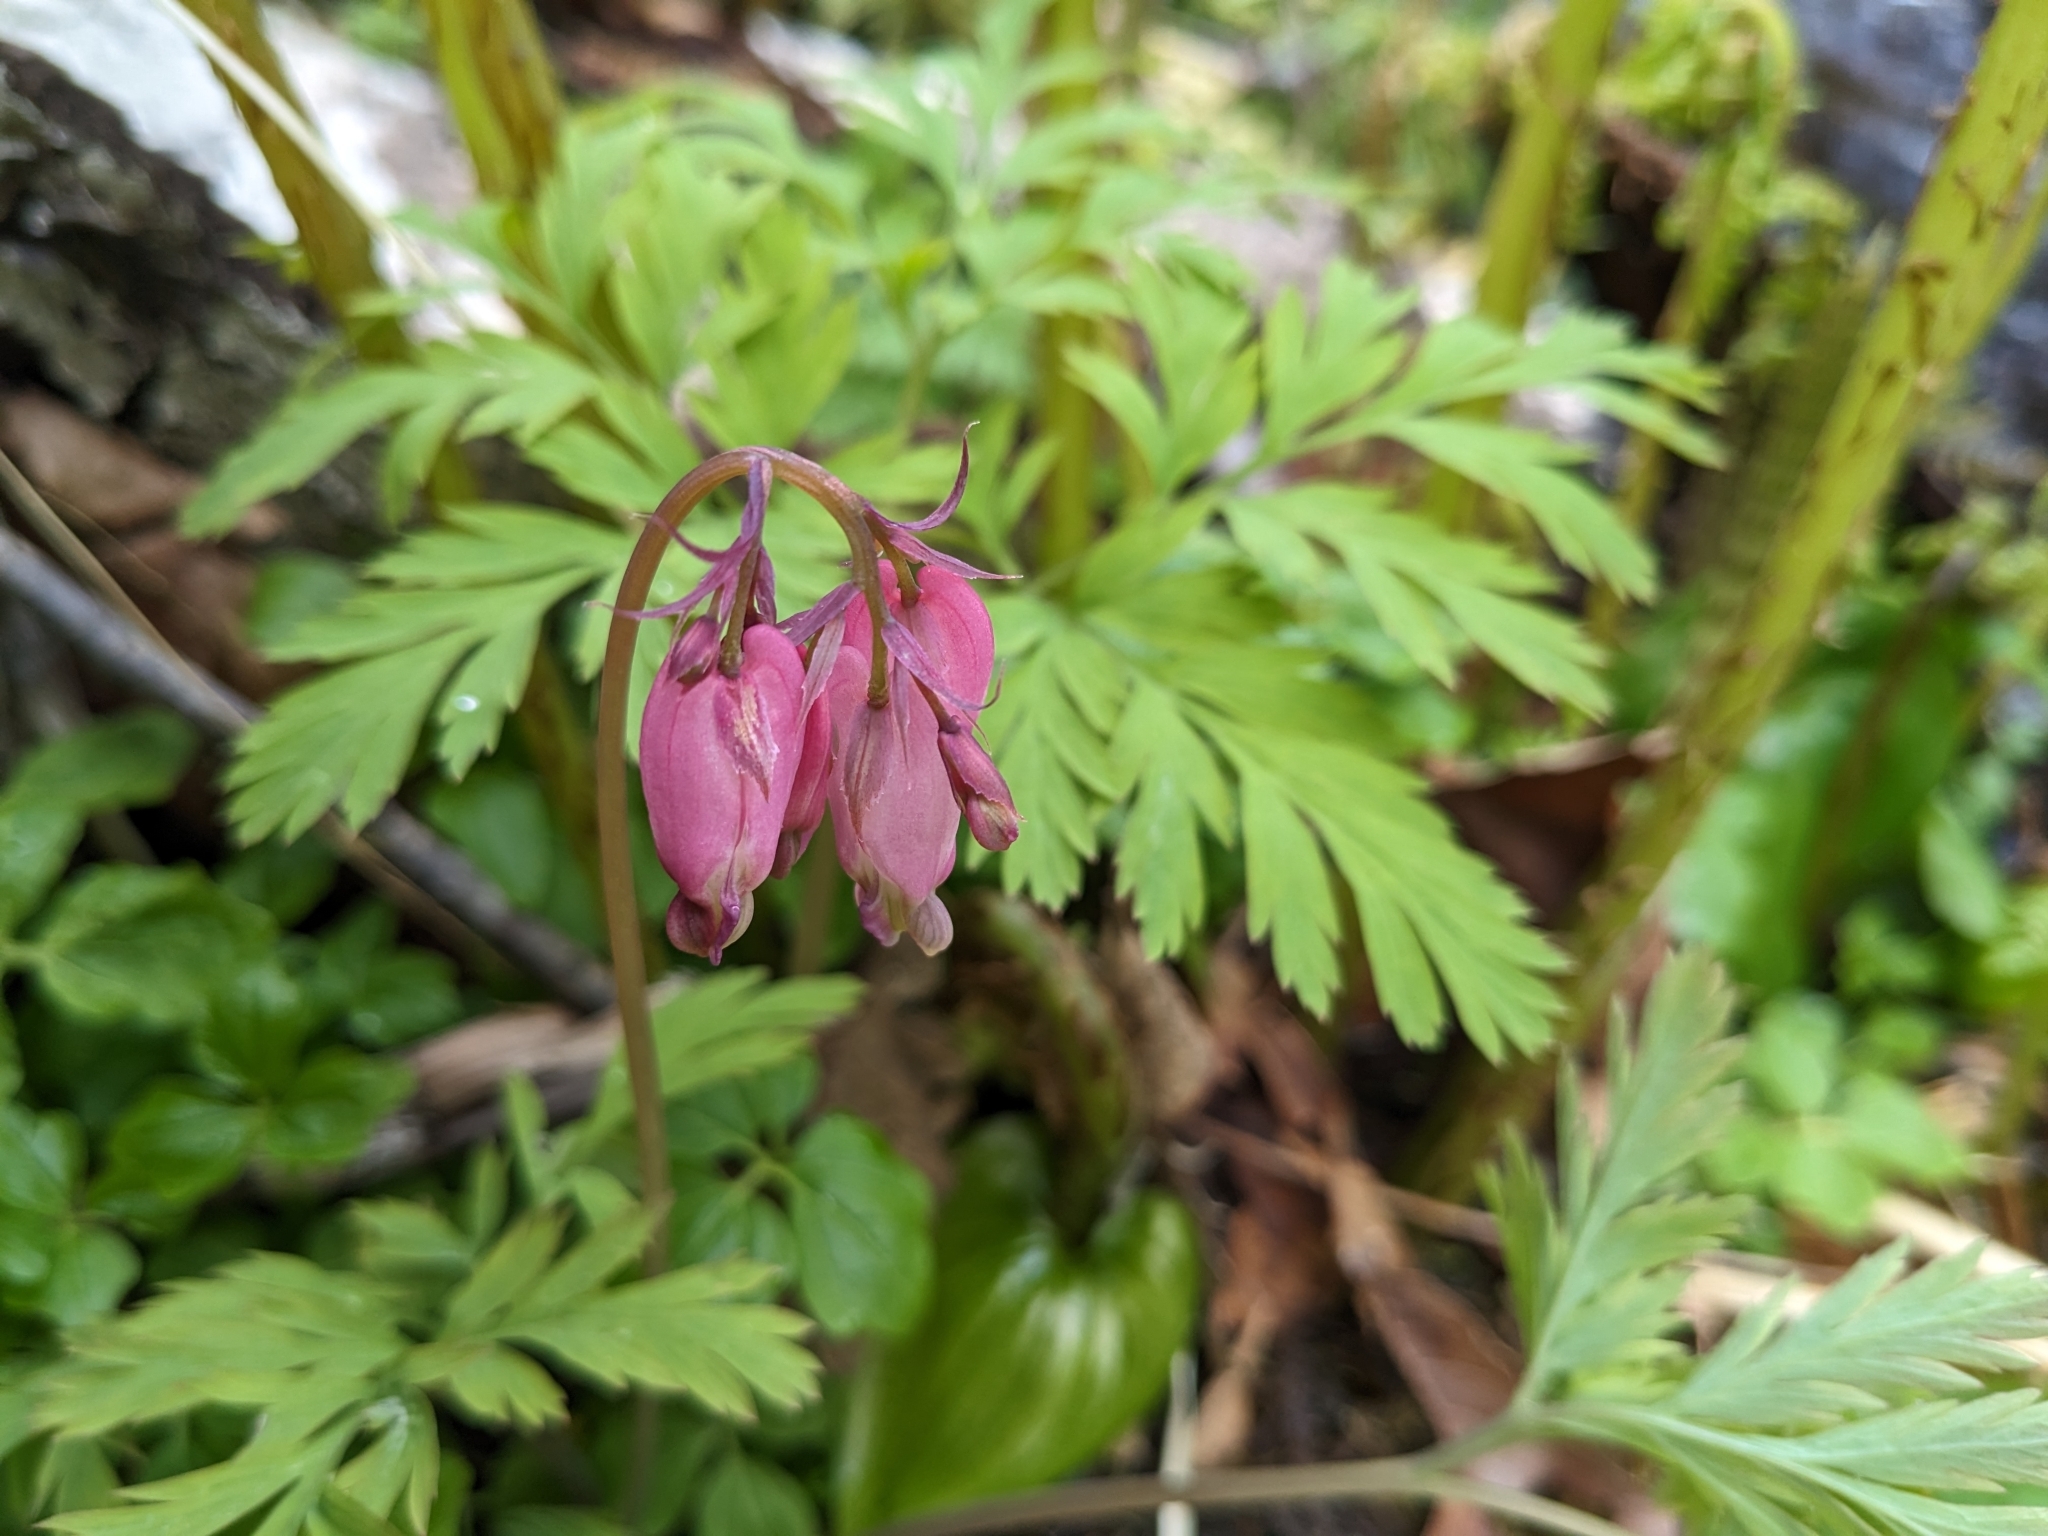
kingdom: Plantae
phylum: Tracheophyta
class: Magnoliopsida
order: Ranunculales
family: Papaveraceae
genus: Dicentra
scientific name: Dicentra formosa
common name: Bleeding-heart
